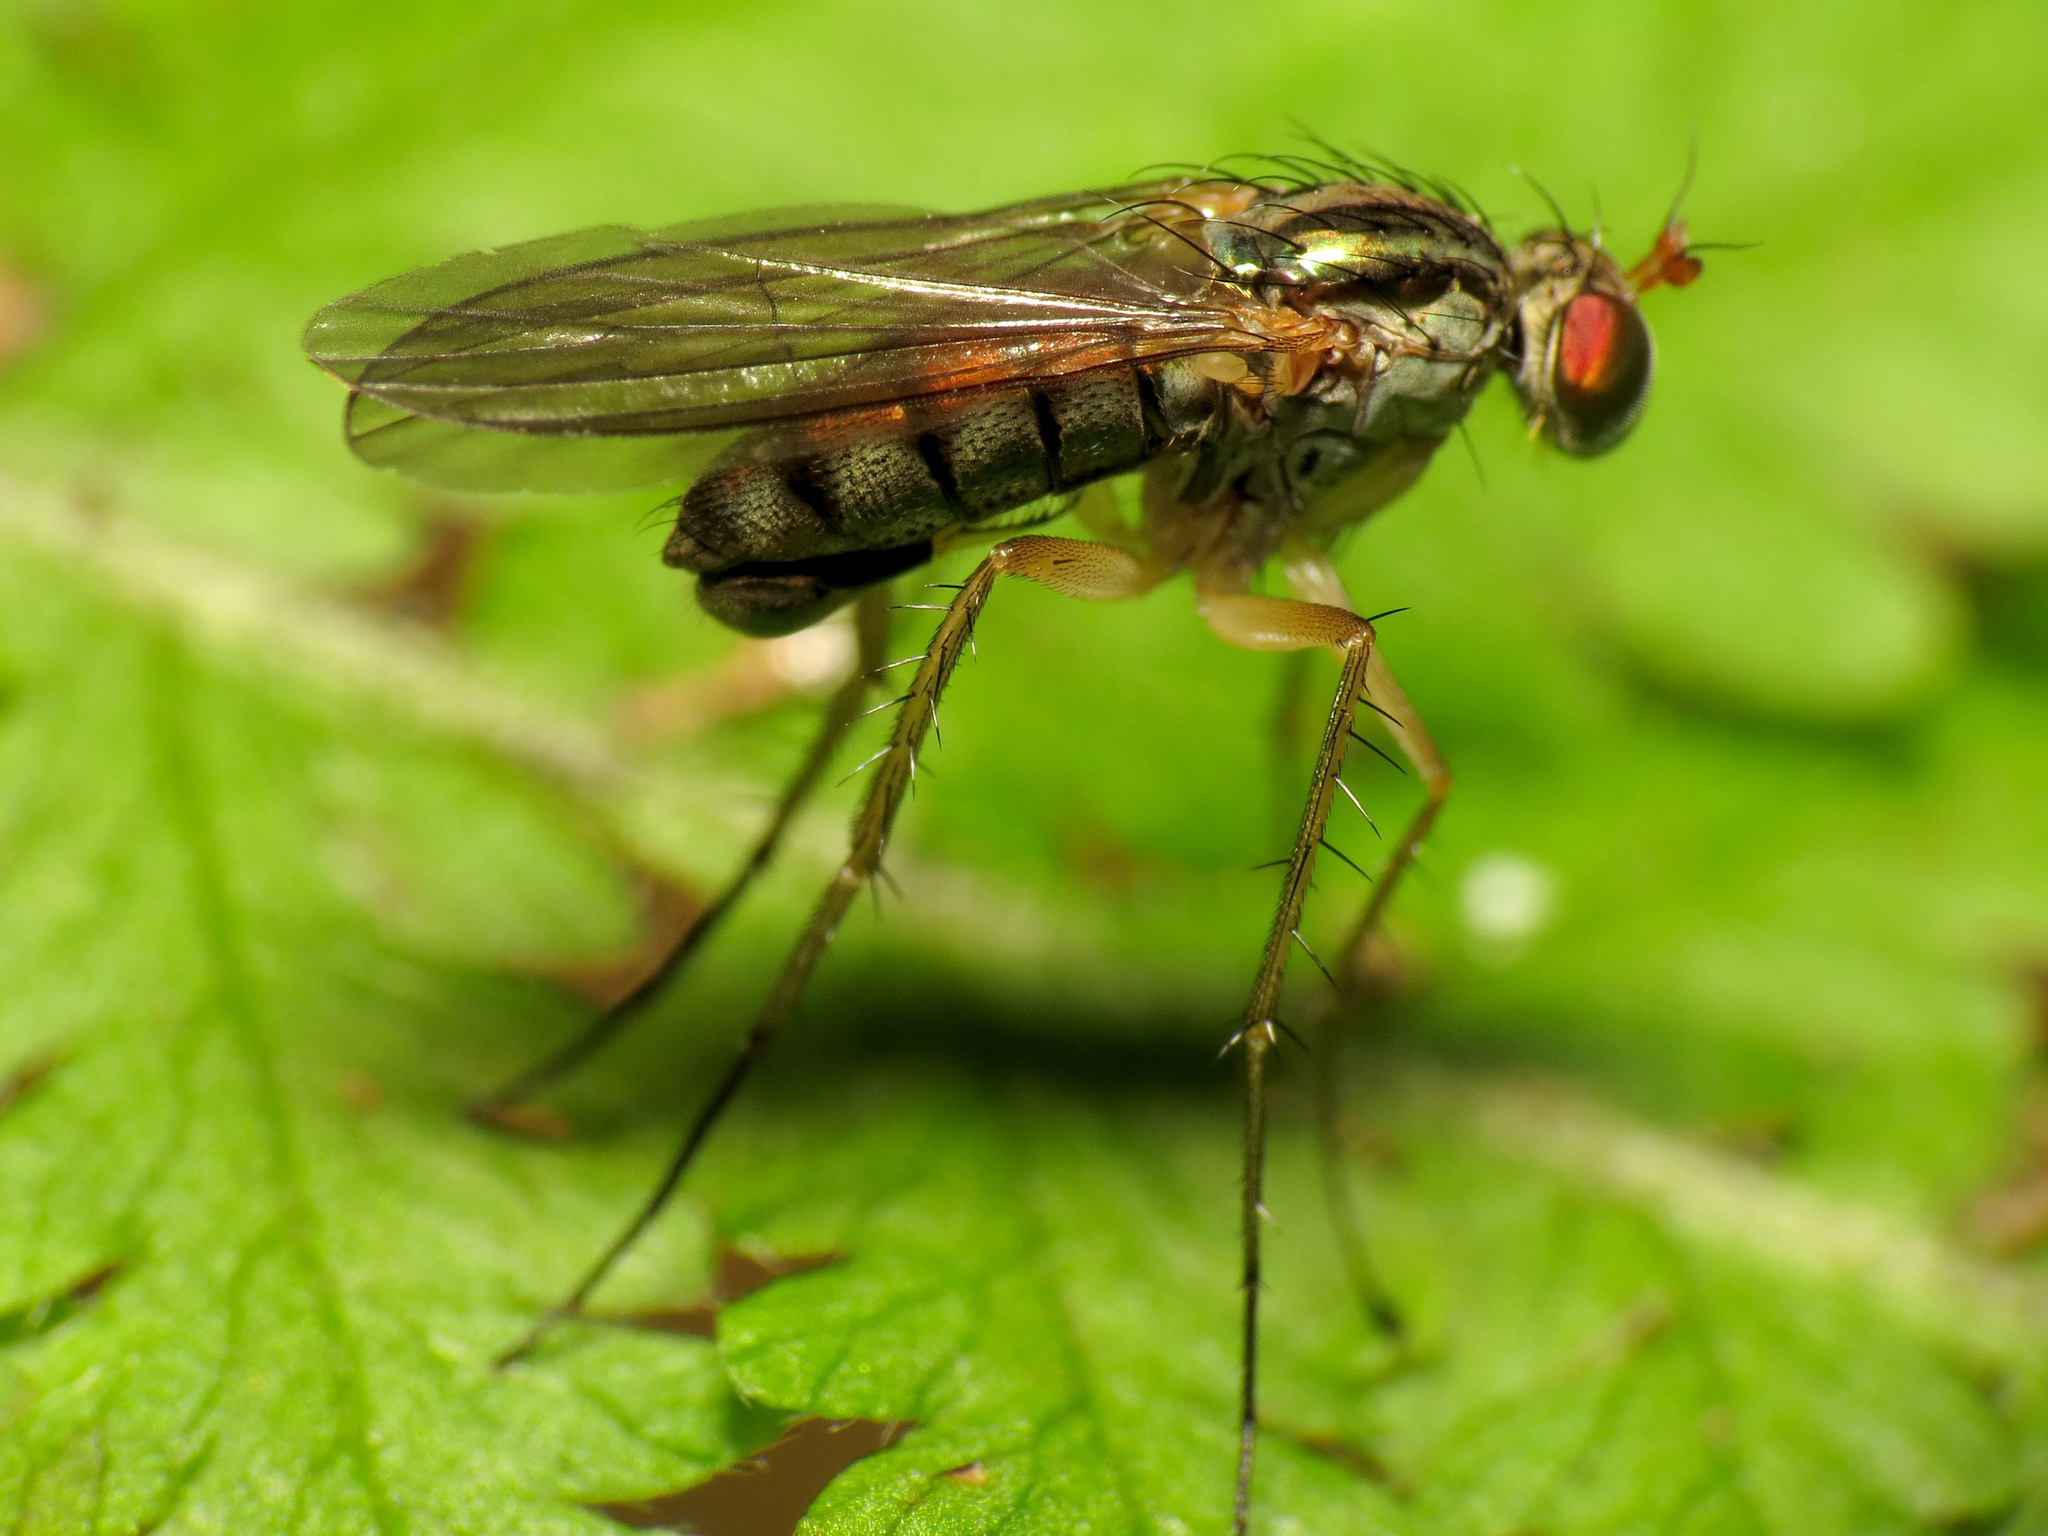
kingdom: Animalia
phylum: Arthropoda
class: Insecta
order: Diptera
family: Dolichopodidae
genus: Dolichopus
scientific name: Dolichopus longipennis
